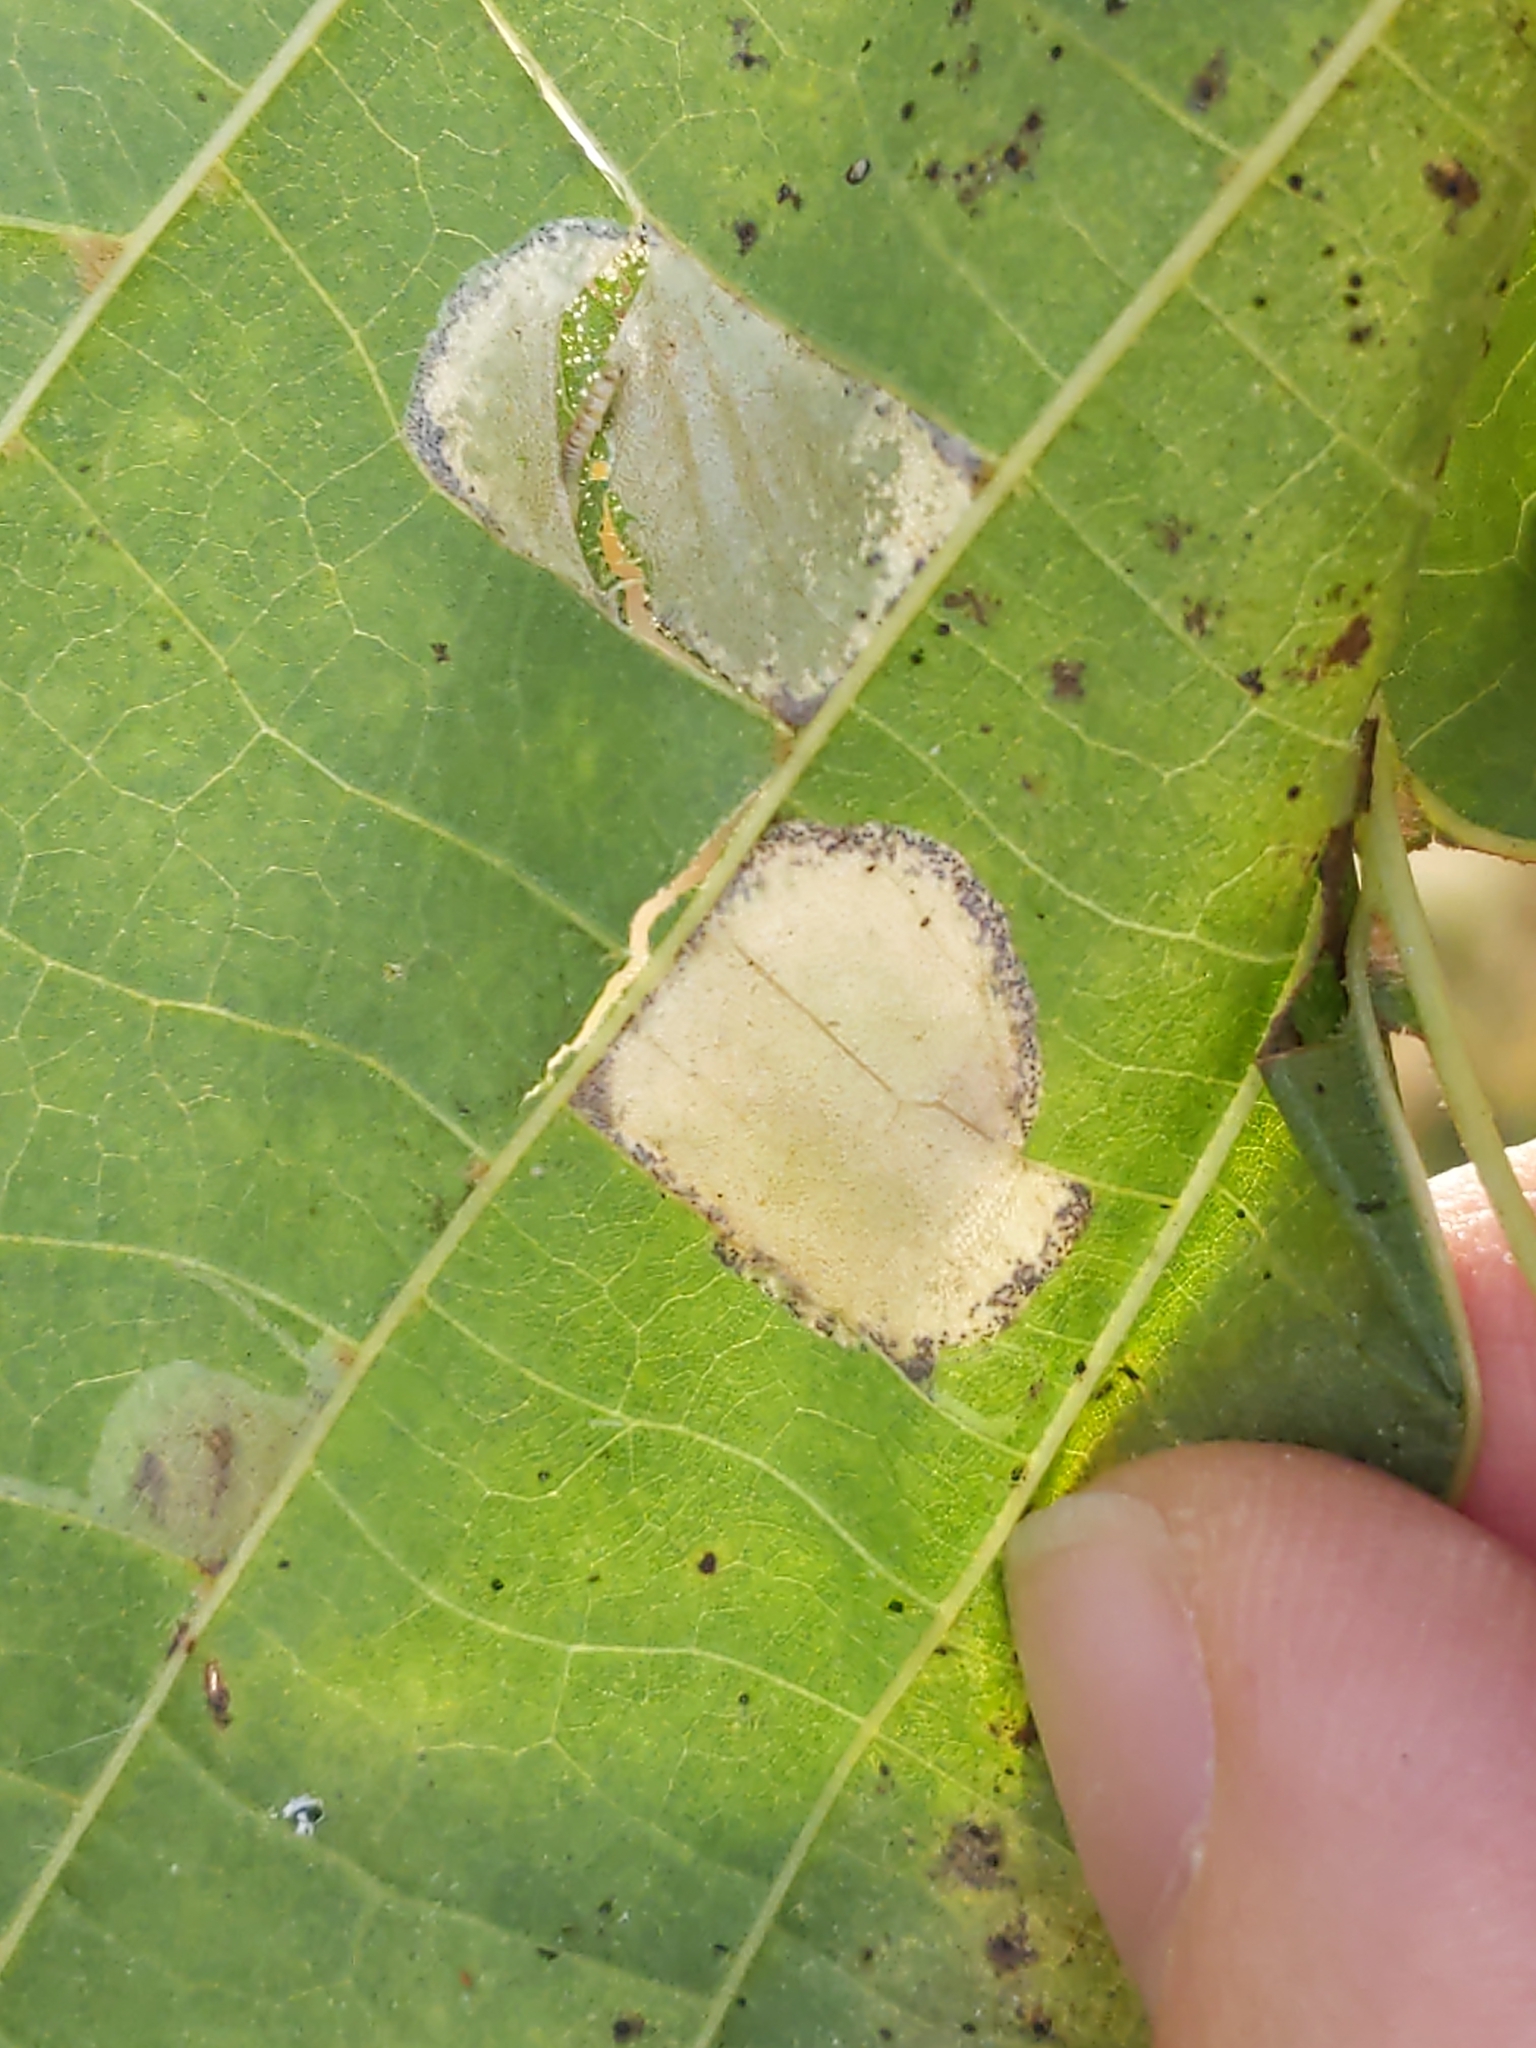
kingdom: Animalia
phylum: Arthropoda
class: Insecta
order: Lepidoptera
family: Gracillariidae
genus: Phyllonorycter
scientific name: Phyllonorycter lucetiella
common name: Basswood miner moth
